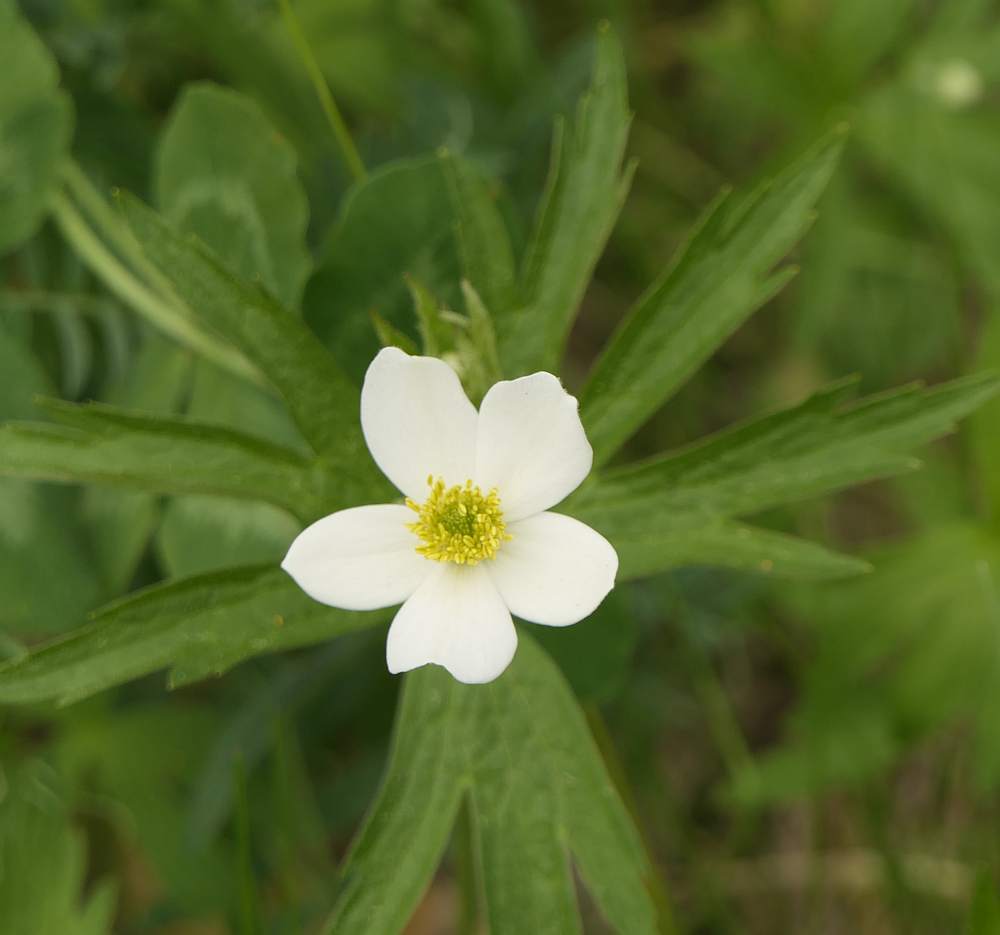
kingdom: Plantae
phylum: Tracheophyta
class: Magnoliopsida
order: Ranunculales
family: Ranunculaceae
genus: Anemonastrum
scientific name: Anemonastrum canadense
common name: Canada anemone
